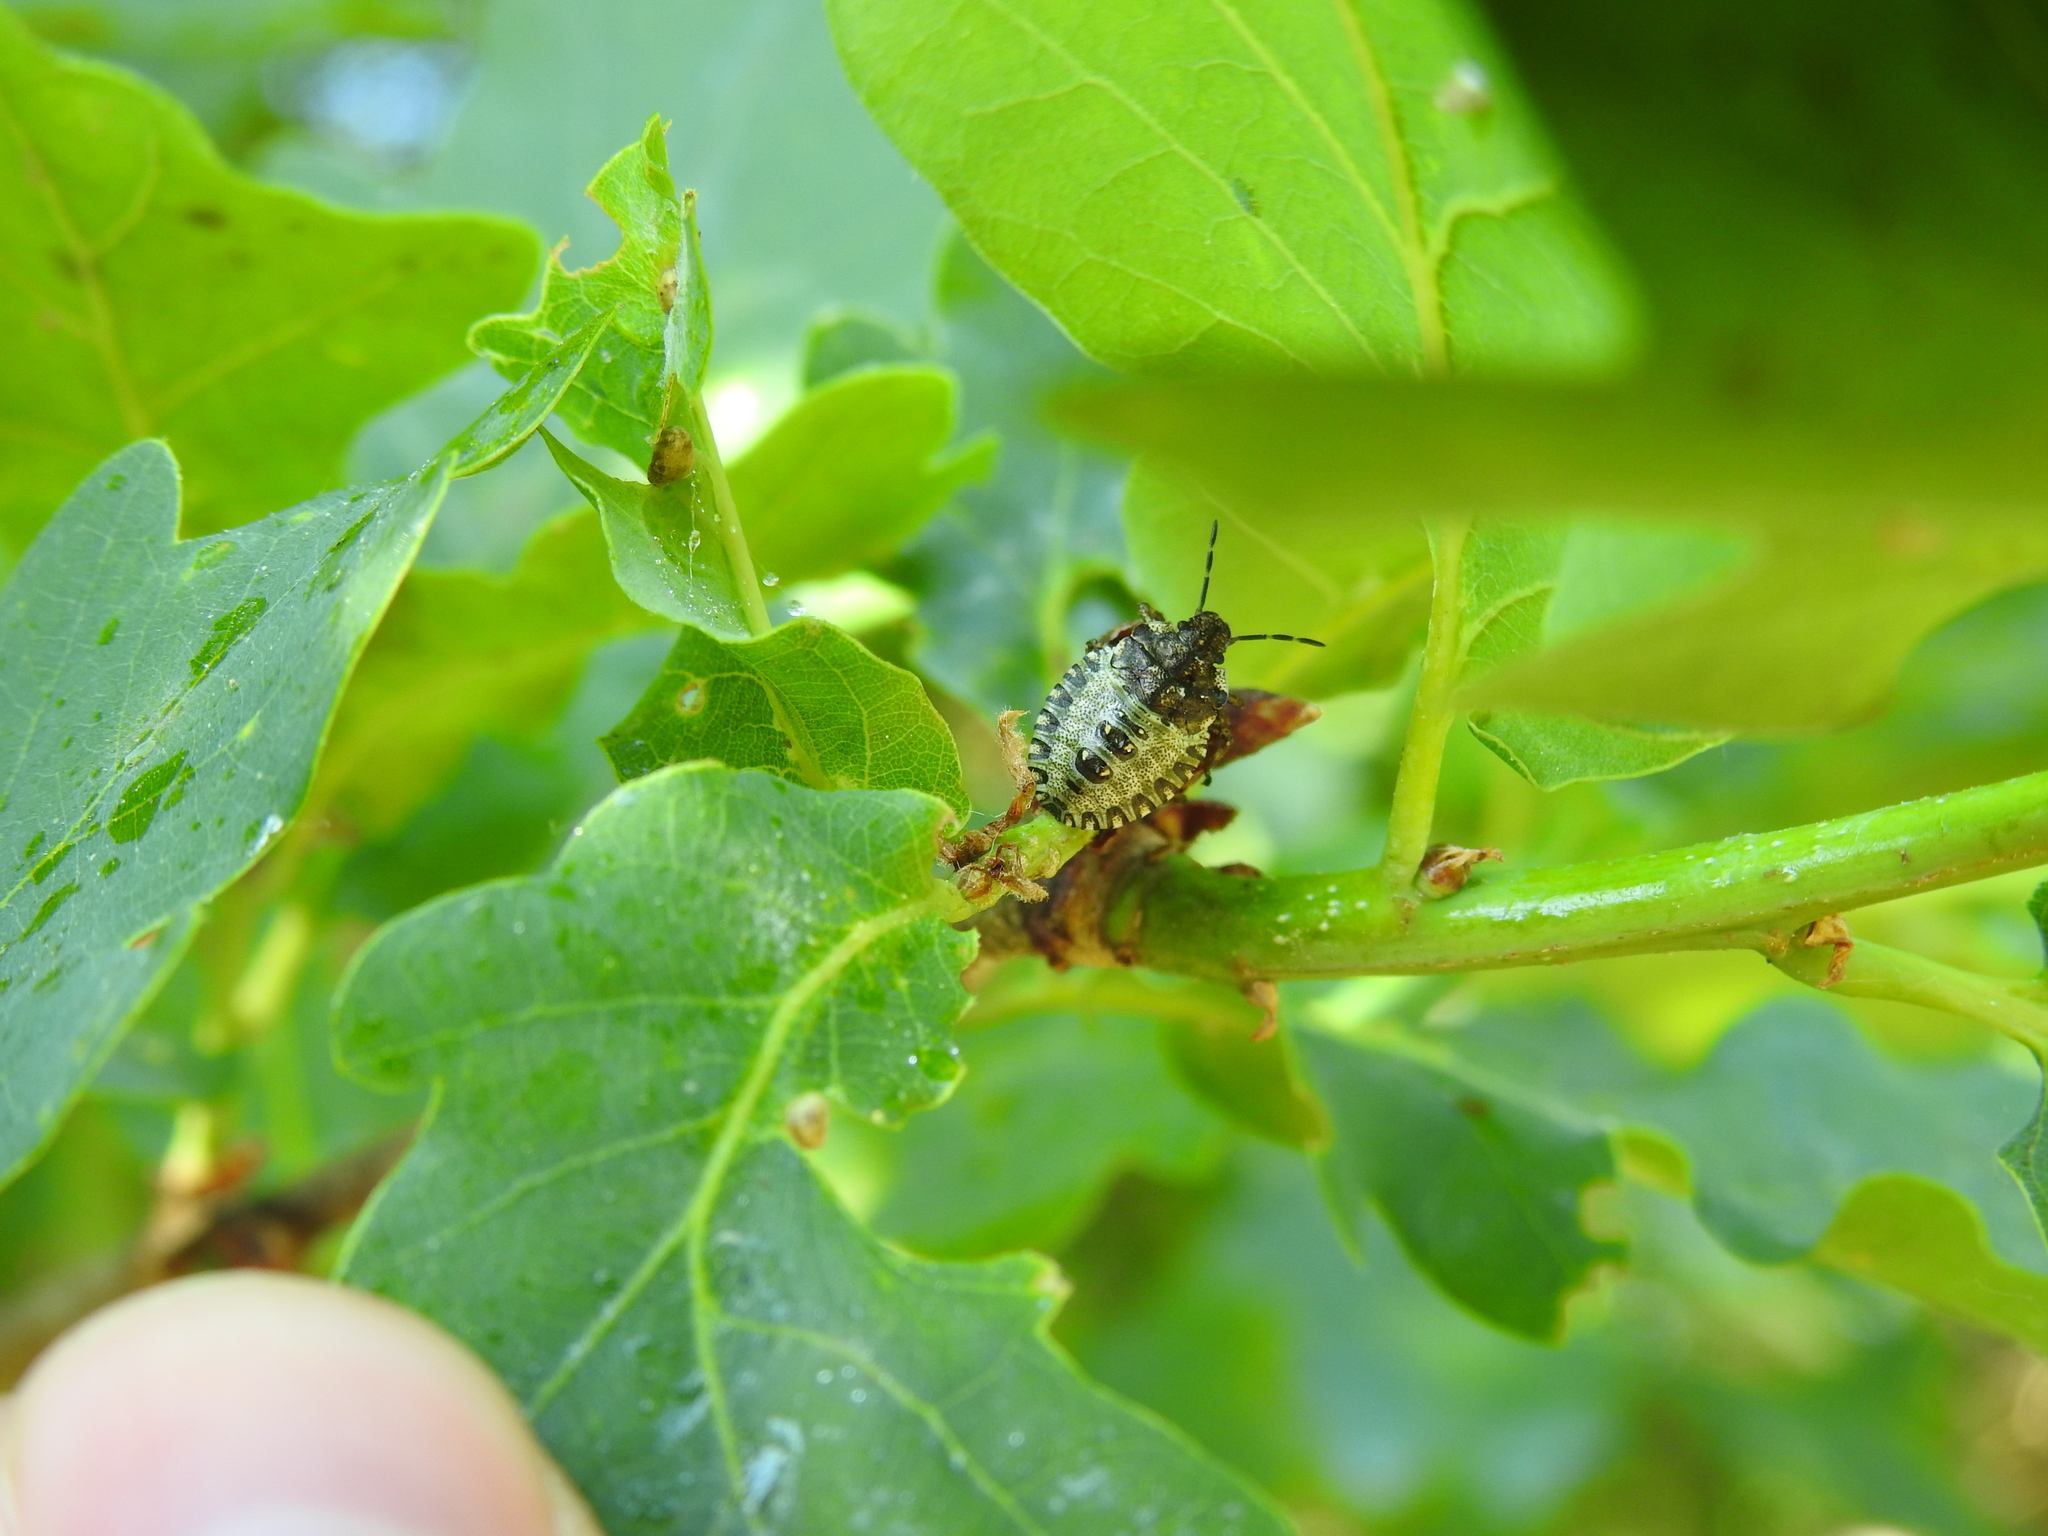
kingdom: Animalia
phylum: Arthropoda
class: Insecta
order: Hemiptera
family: Pentatomidae
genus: Pentatoma
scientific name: Pentatoma rufipes
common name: Forest bug
